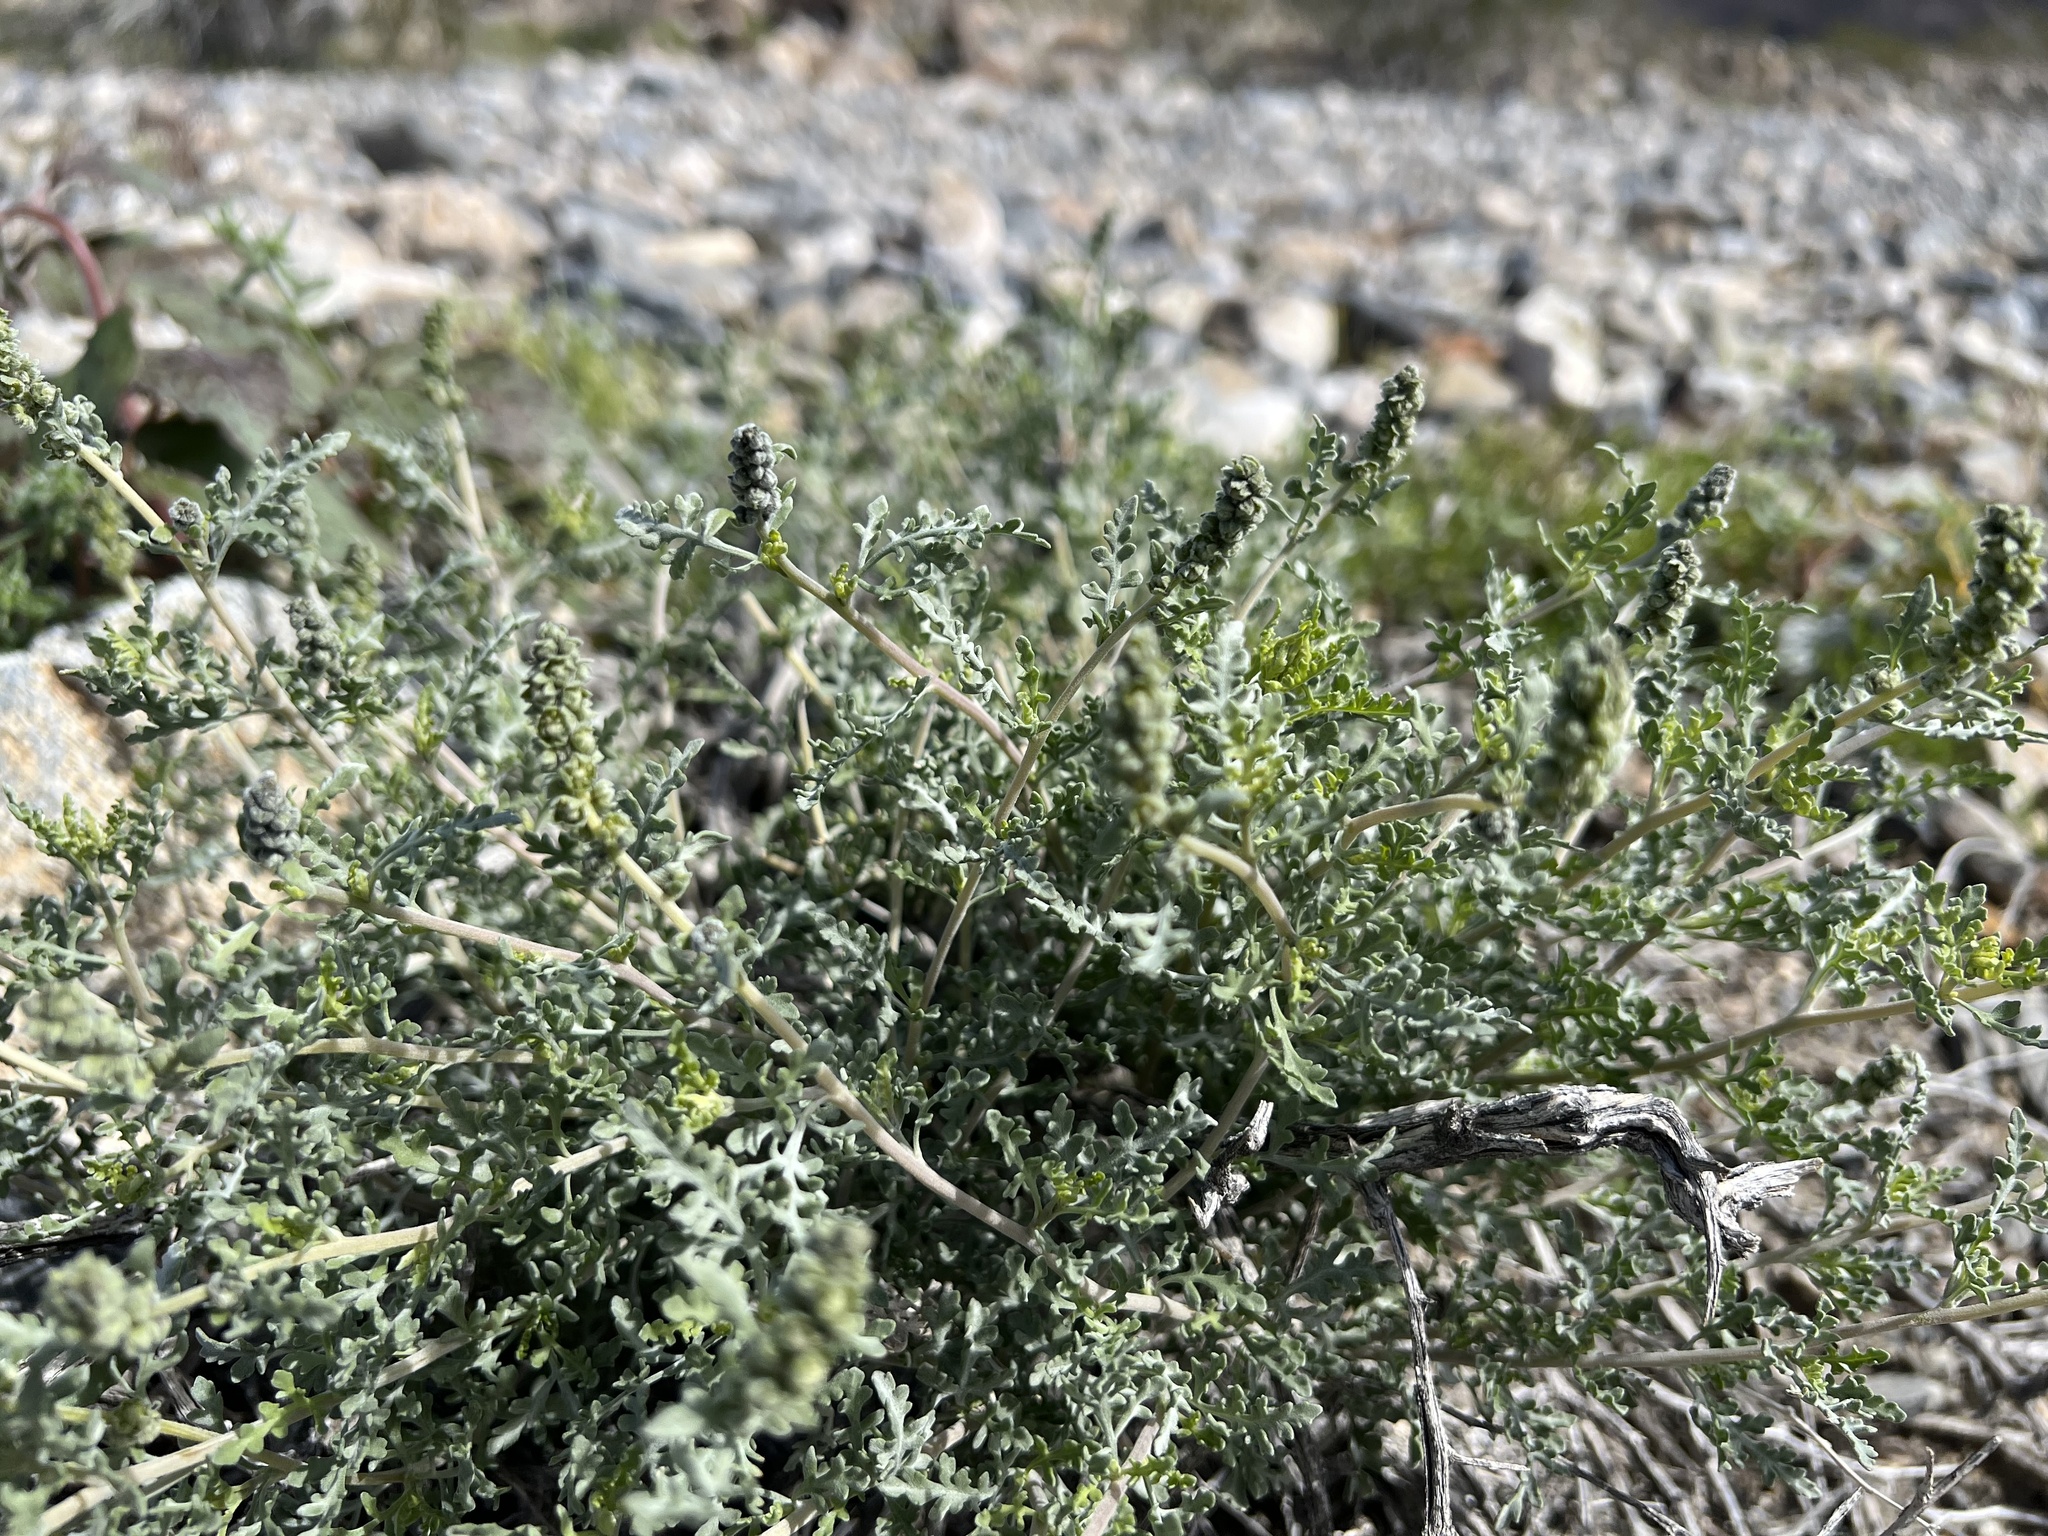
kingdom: Plantae
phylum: Tracheophyta
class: Magnoliopsida
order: Asterales
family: Asteraceae
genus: Ambrosia
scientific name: Ambrosia dumosa
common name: Bur-sage
